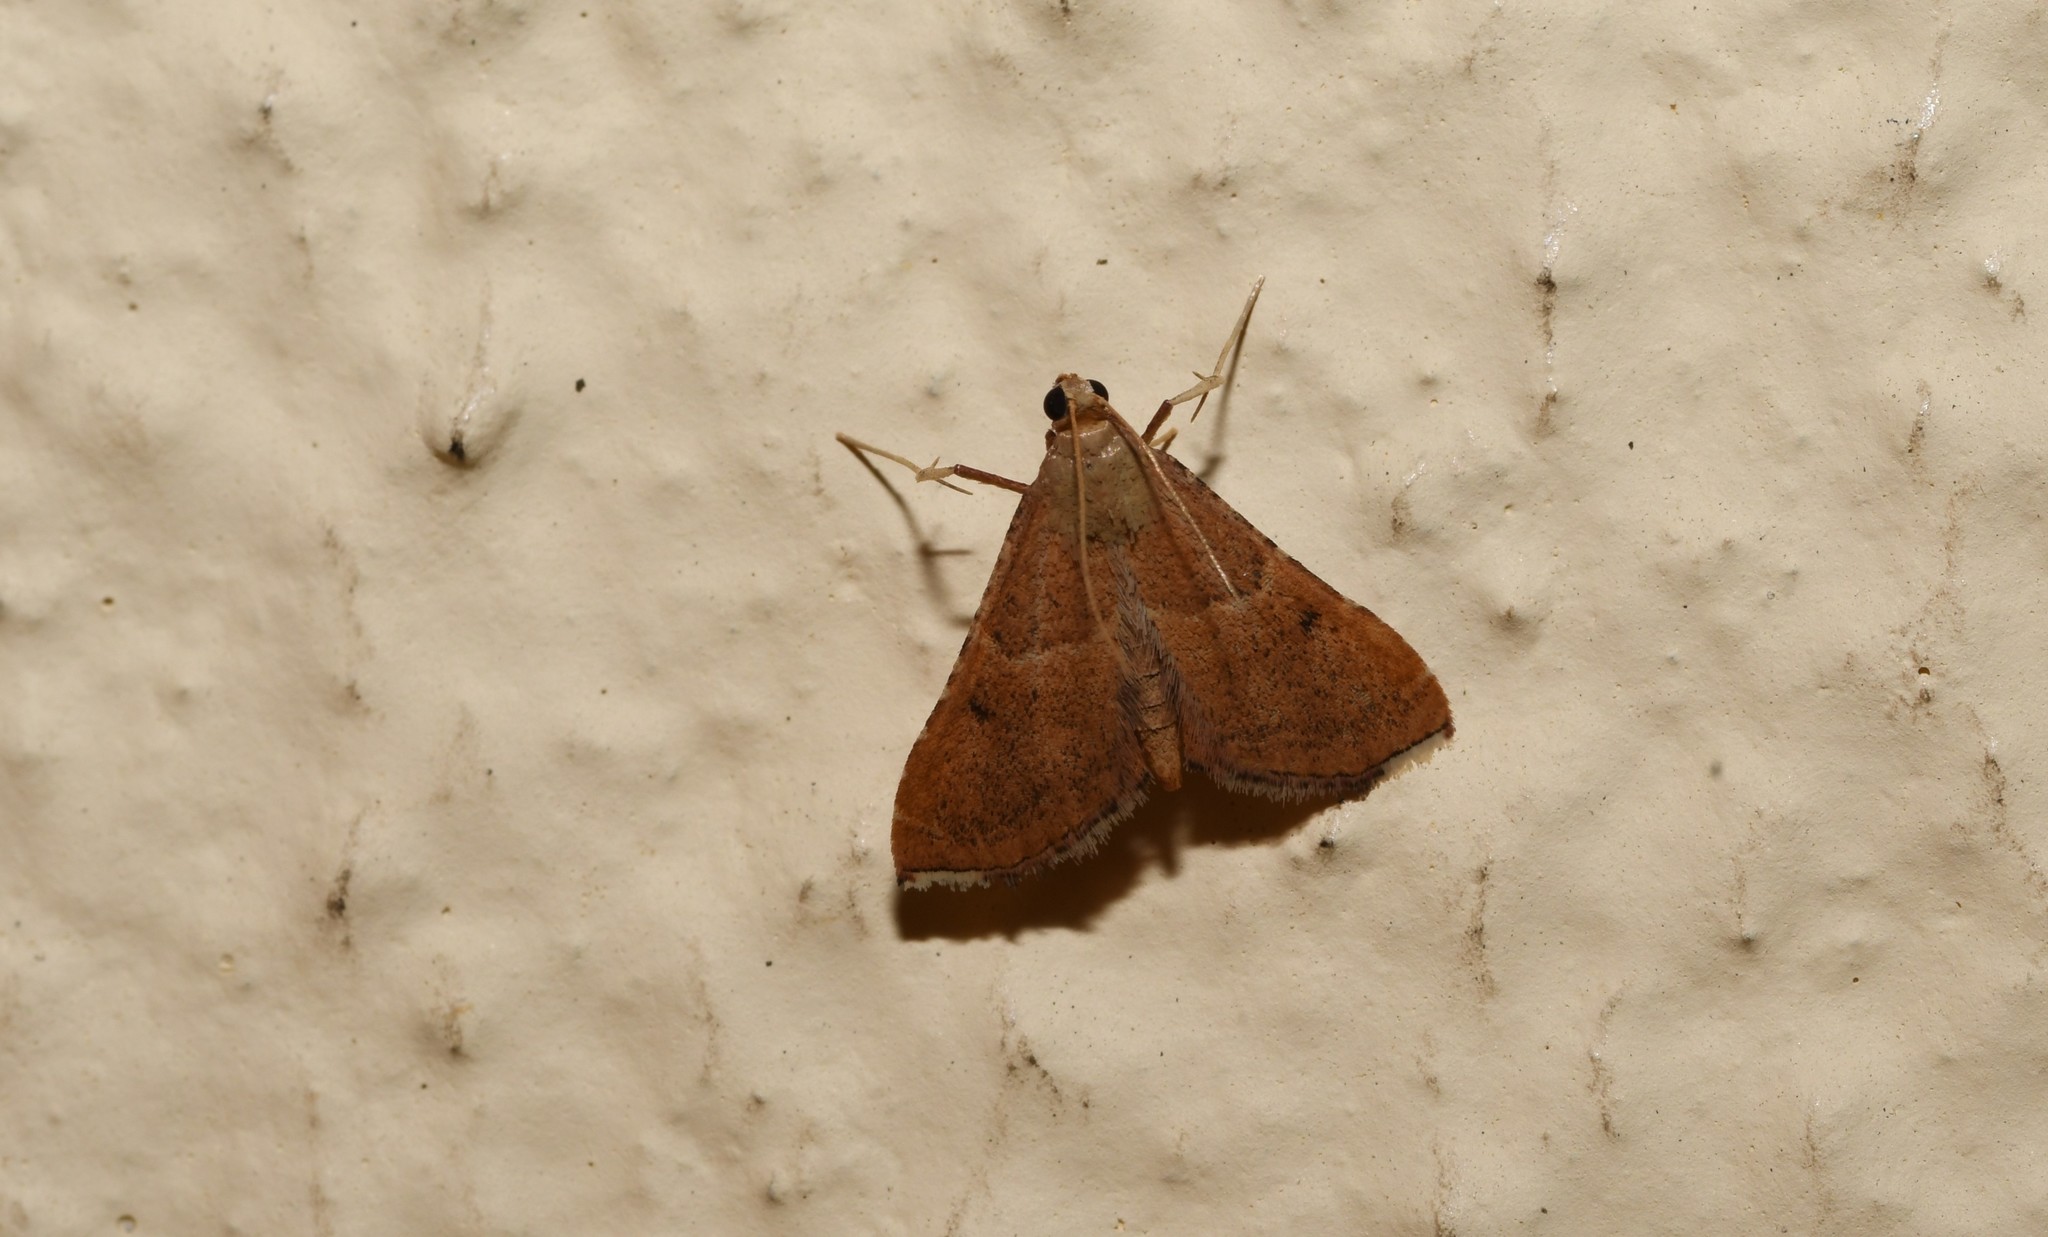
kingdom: Animalia
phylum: Arthropoda
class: Insecta
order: Lepidoptera
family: Pyralidae
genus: Endotricha
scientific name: Endotricha flammealis
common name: Rosy tabby
